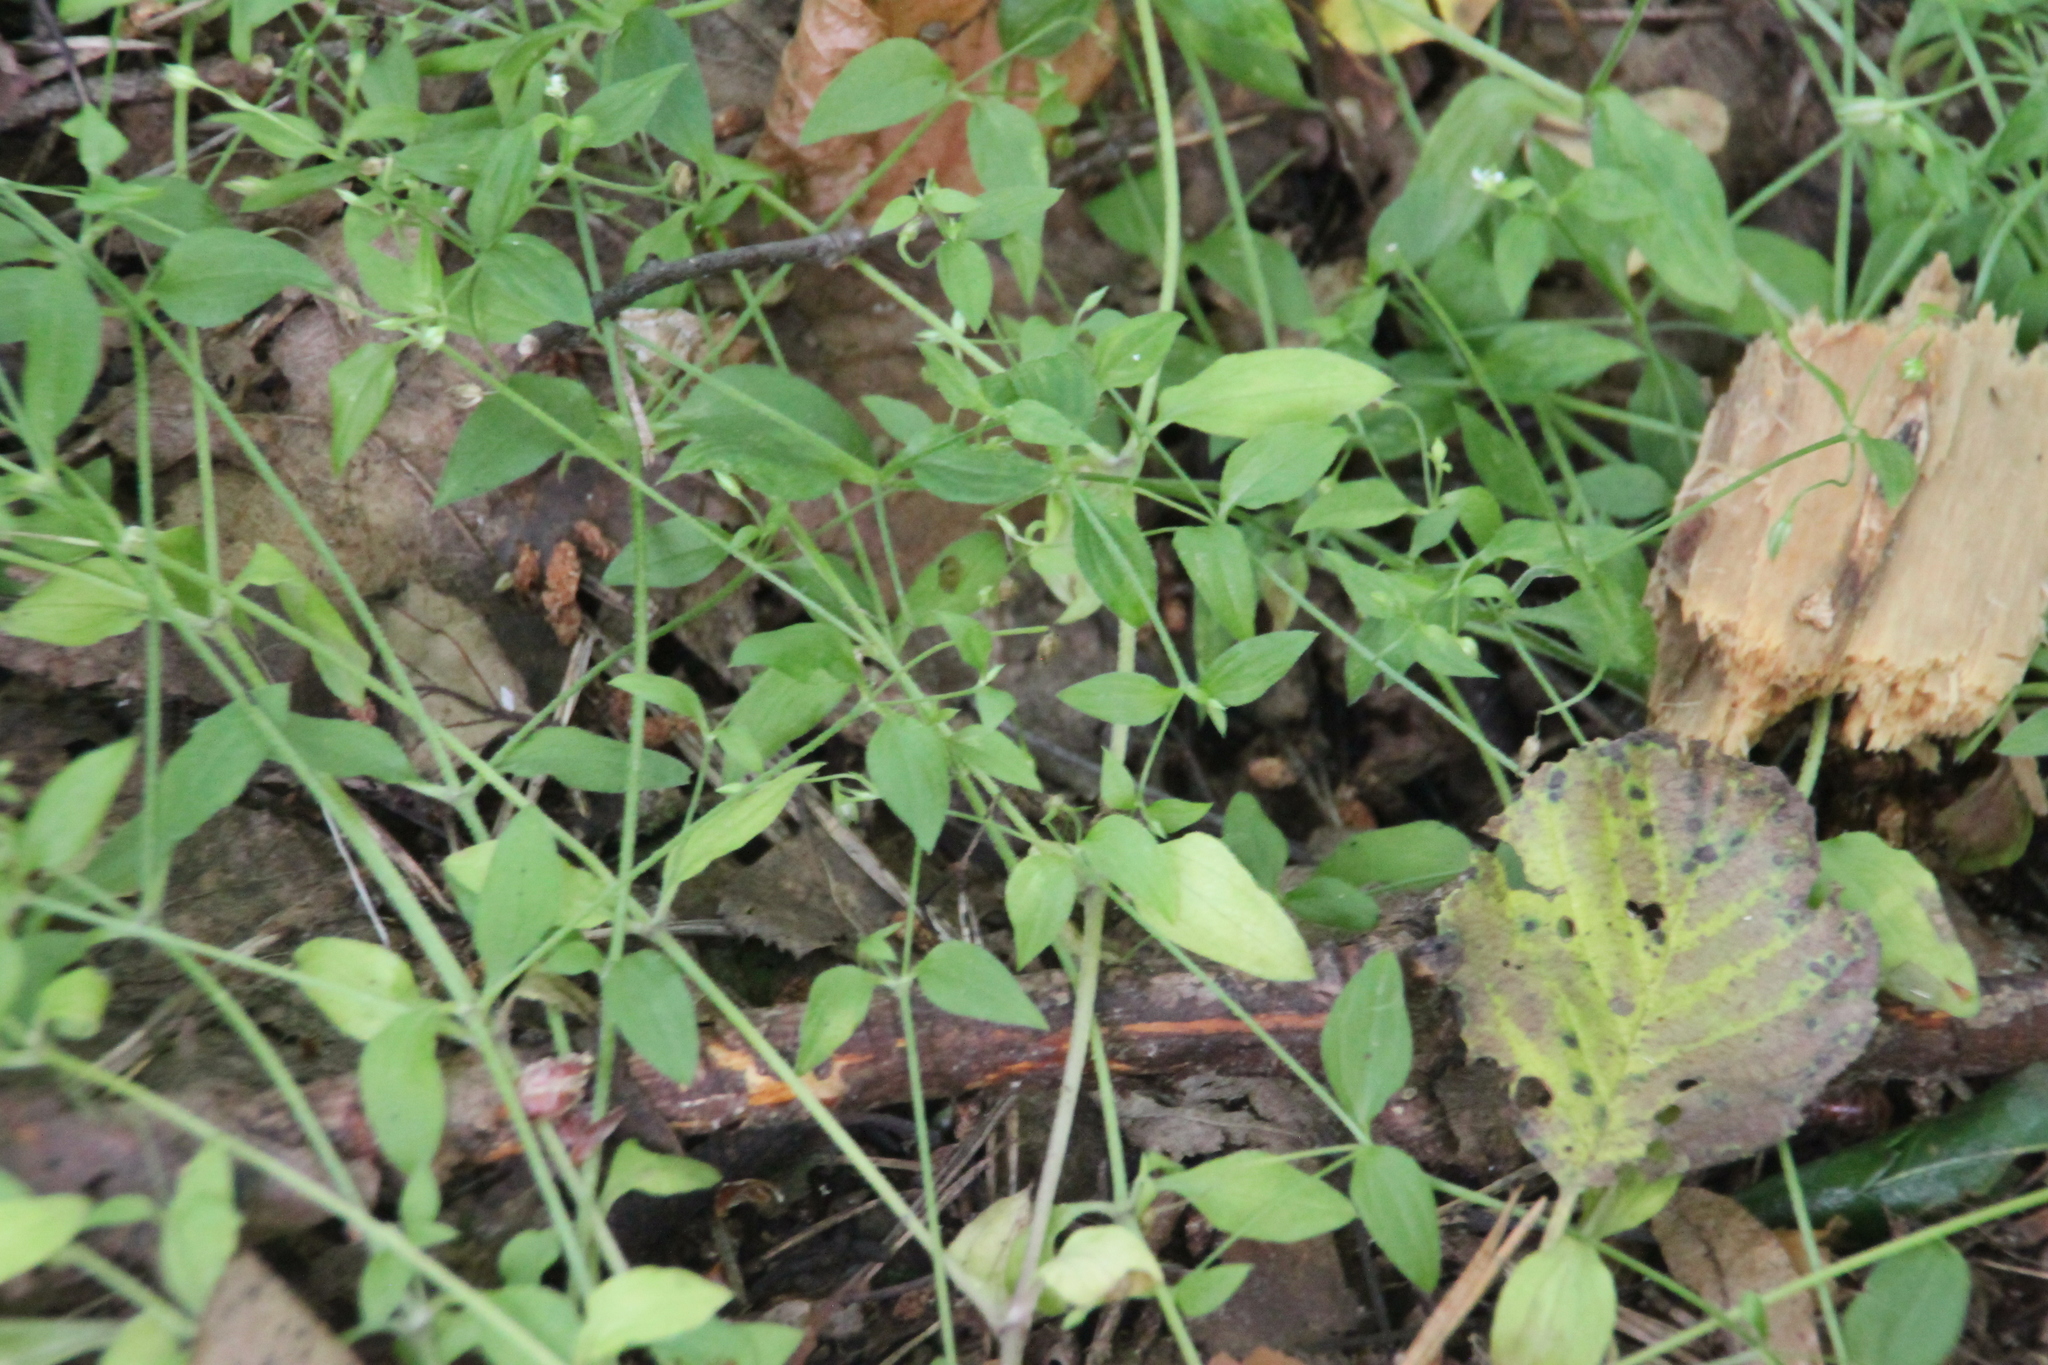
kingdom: Plantae
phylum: Tracheophyta
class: Magnoliopsida
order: Caryophyllales
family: Caryophyllaceae
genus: Moehringia
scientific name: Moehringia trinervia
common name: Three-nerved sandwort
